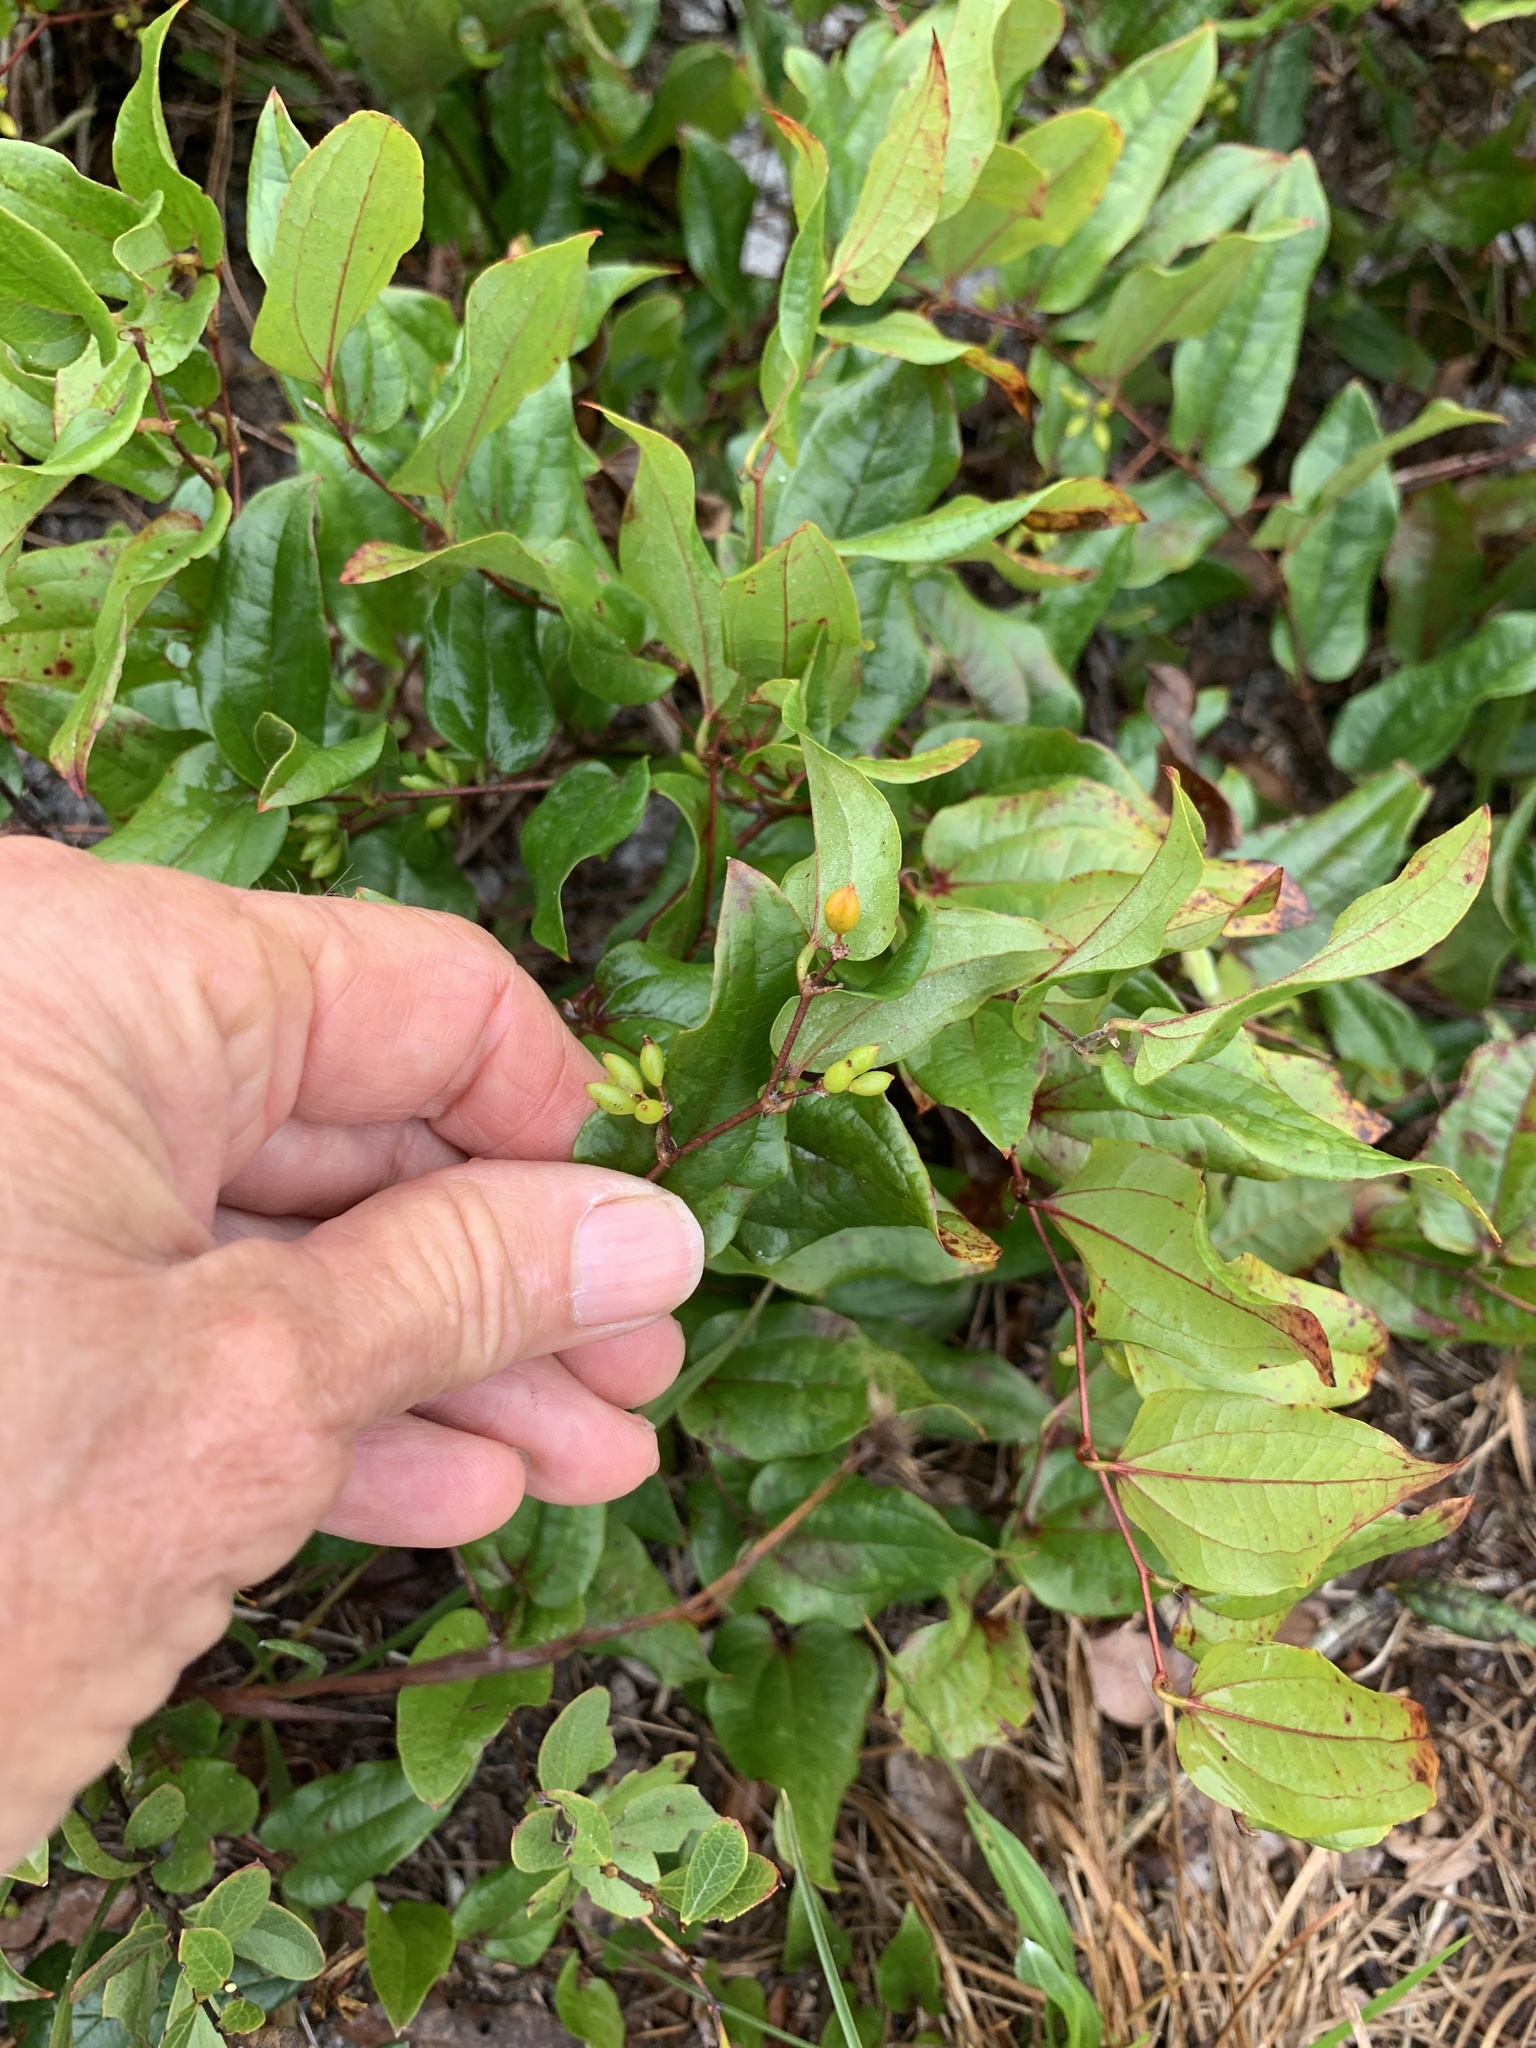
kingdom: Plantae
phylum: Tracheophyta
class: Liliopsida
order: Liliales
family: Smilacaceae
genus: Smilax
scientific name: Smilax pumila
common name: Sarsaparilla-vine
